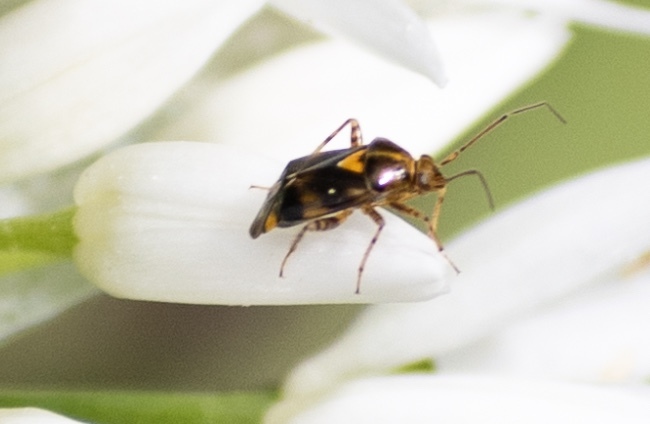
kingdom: Animalia
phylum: Arthropoda
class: Insecta
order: Hemiptera
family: Miridae
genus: Liocoris
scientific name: Liocoris tripustulatus
